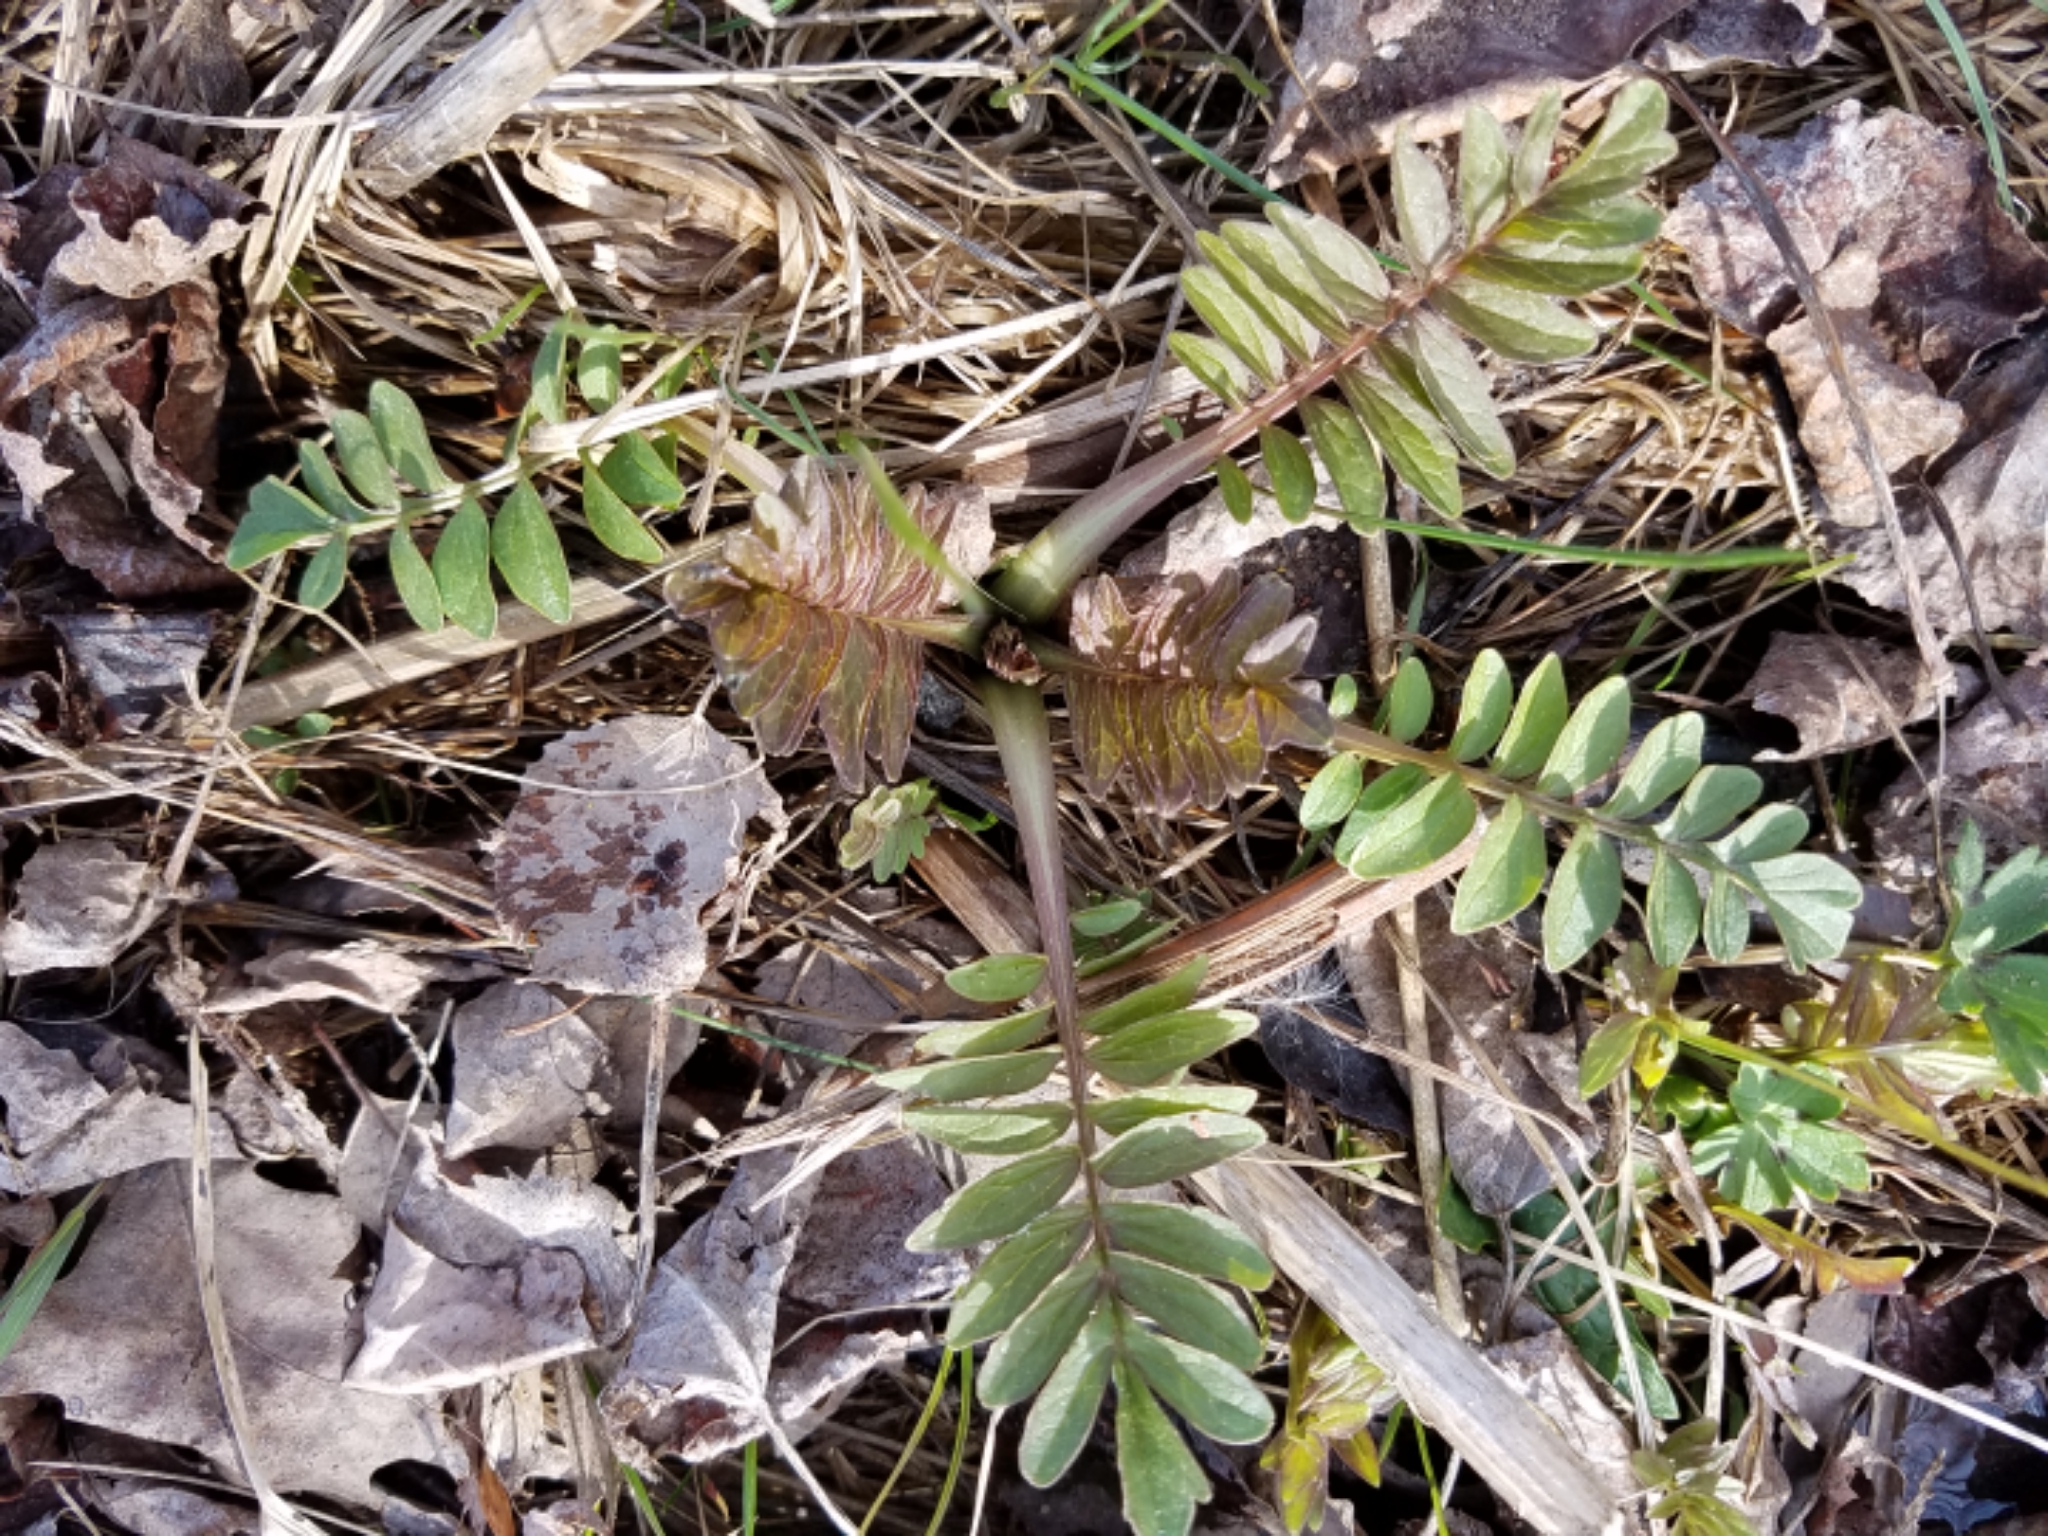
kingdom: Plantae
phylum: Tracheophyta
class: Magnoliopsida
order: Dipsacales
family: Caprifoliaceae
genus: Valeriana
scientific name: Valeriana officinalis
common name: Common valerian
